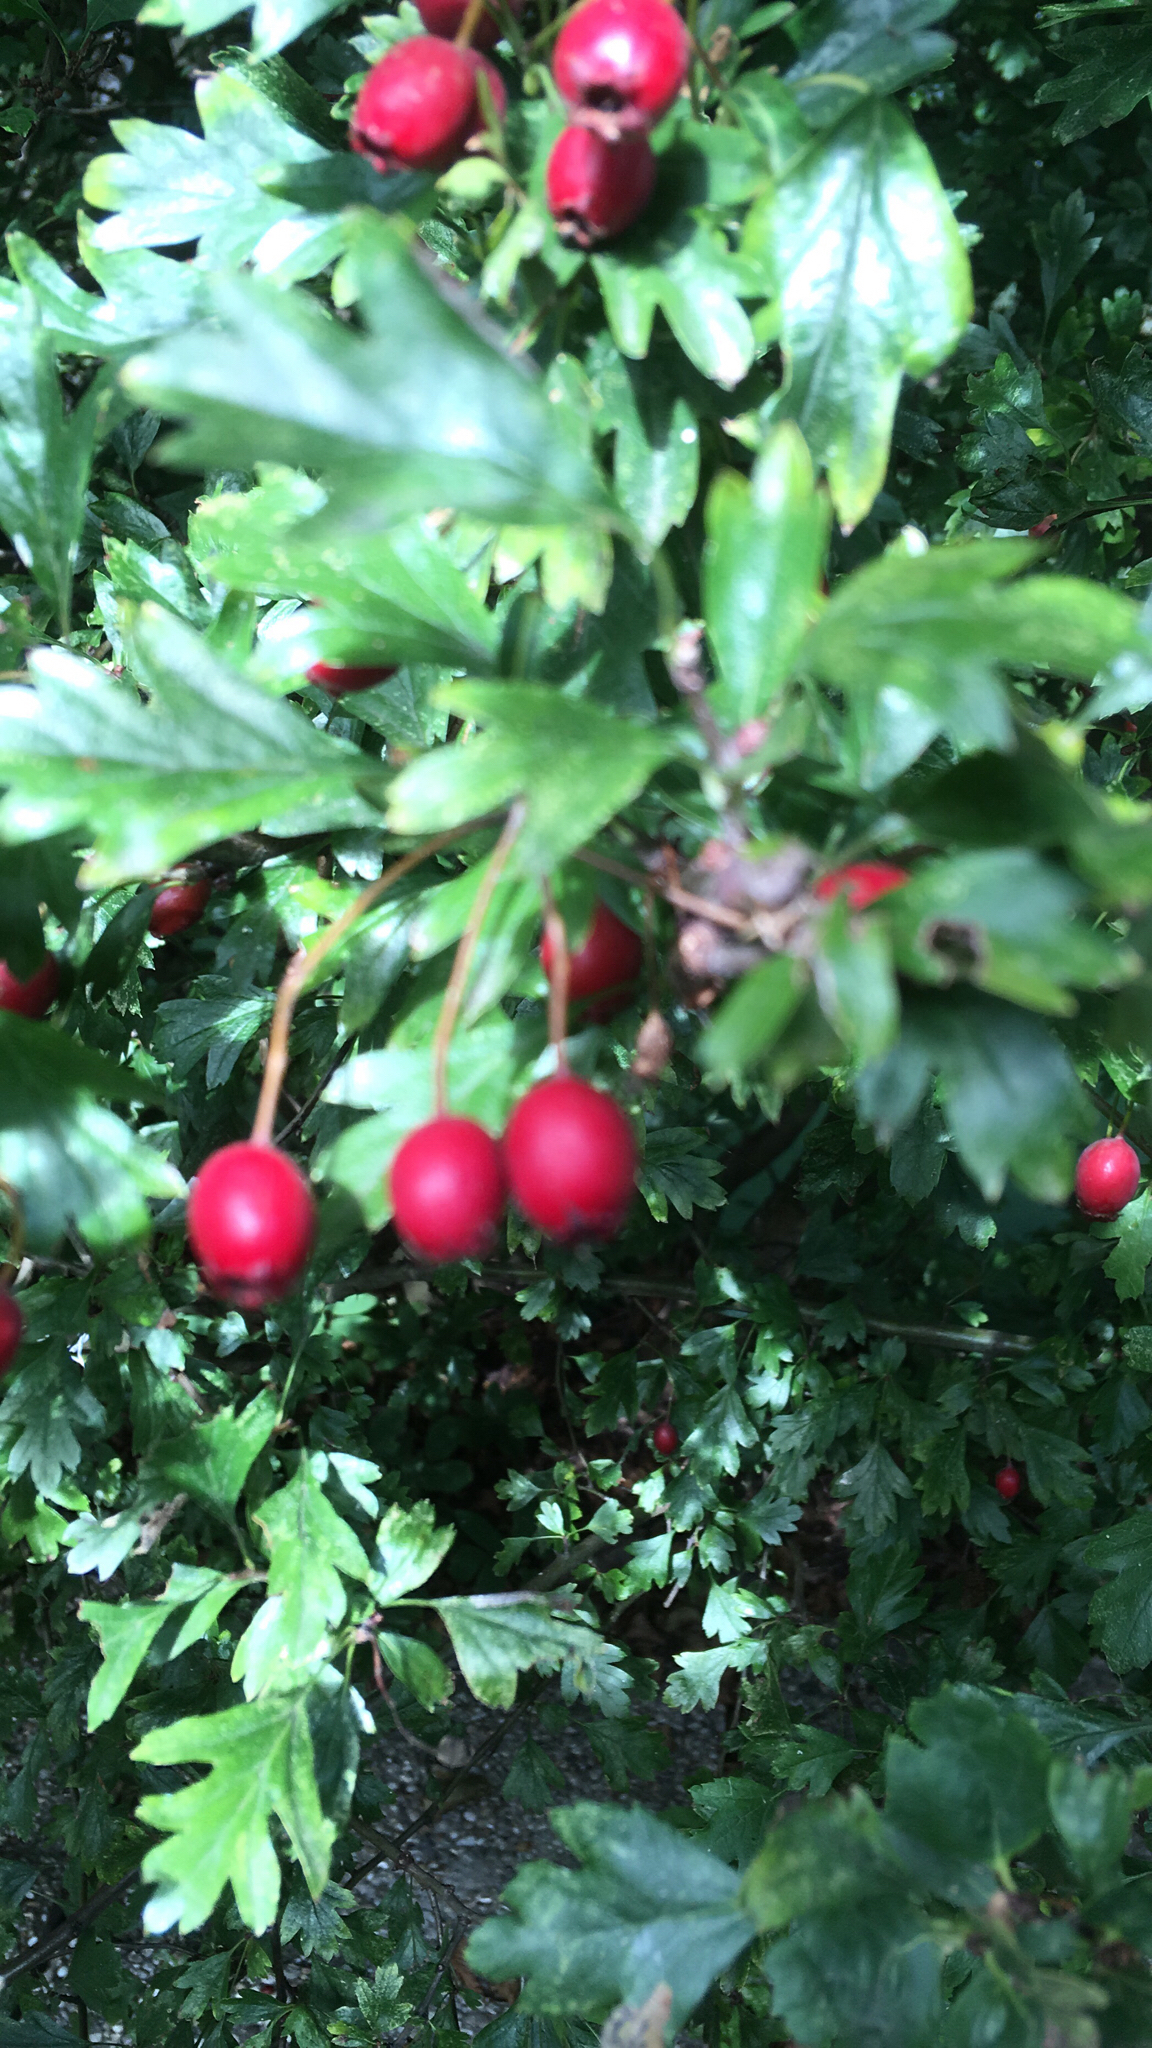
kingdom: Plantae
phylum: Tracheophyta
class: Magnoliopsida
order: Rosales
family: Rosaceae
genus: Crataegus
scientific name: Crataegus monogyna
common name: Hawthorn
